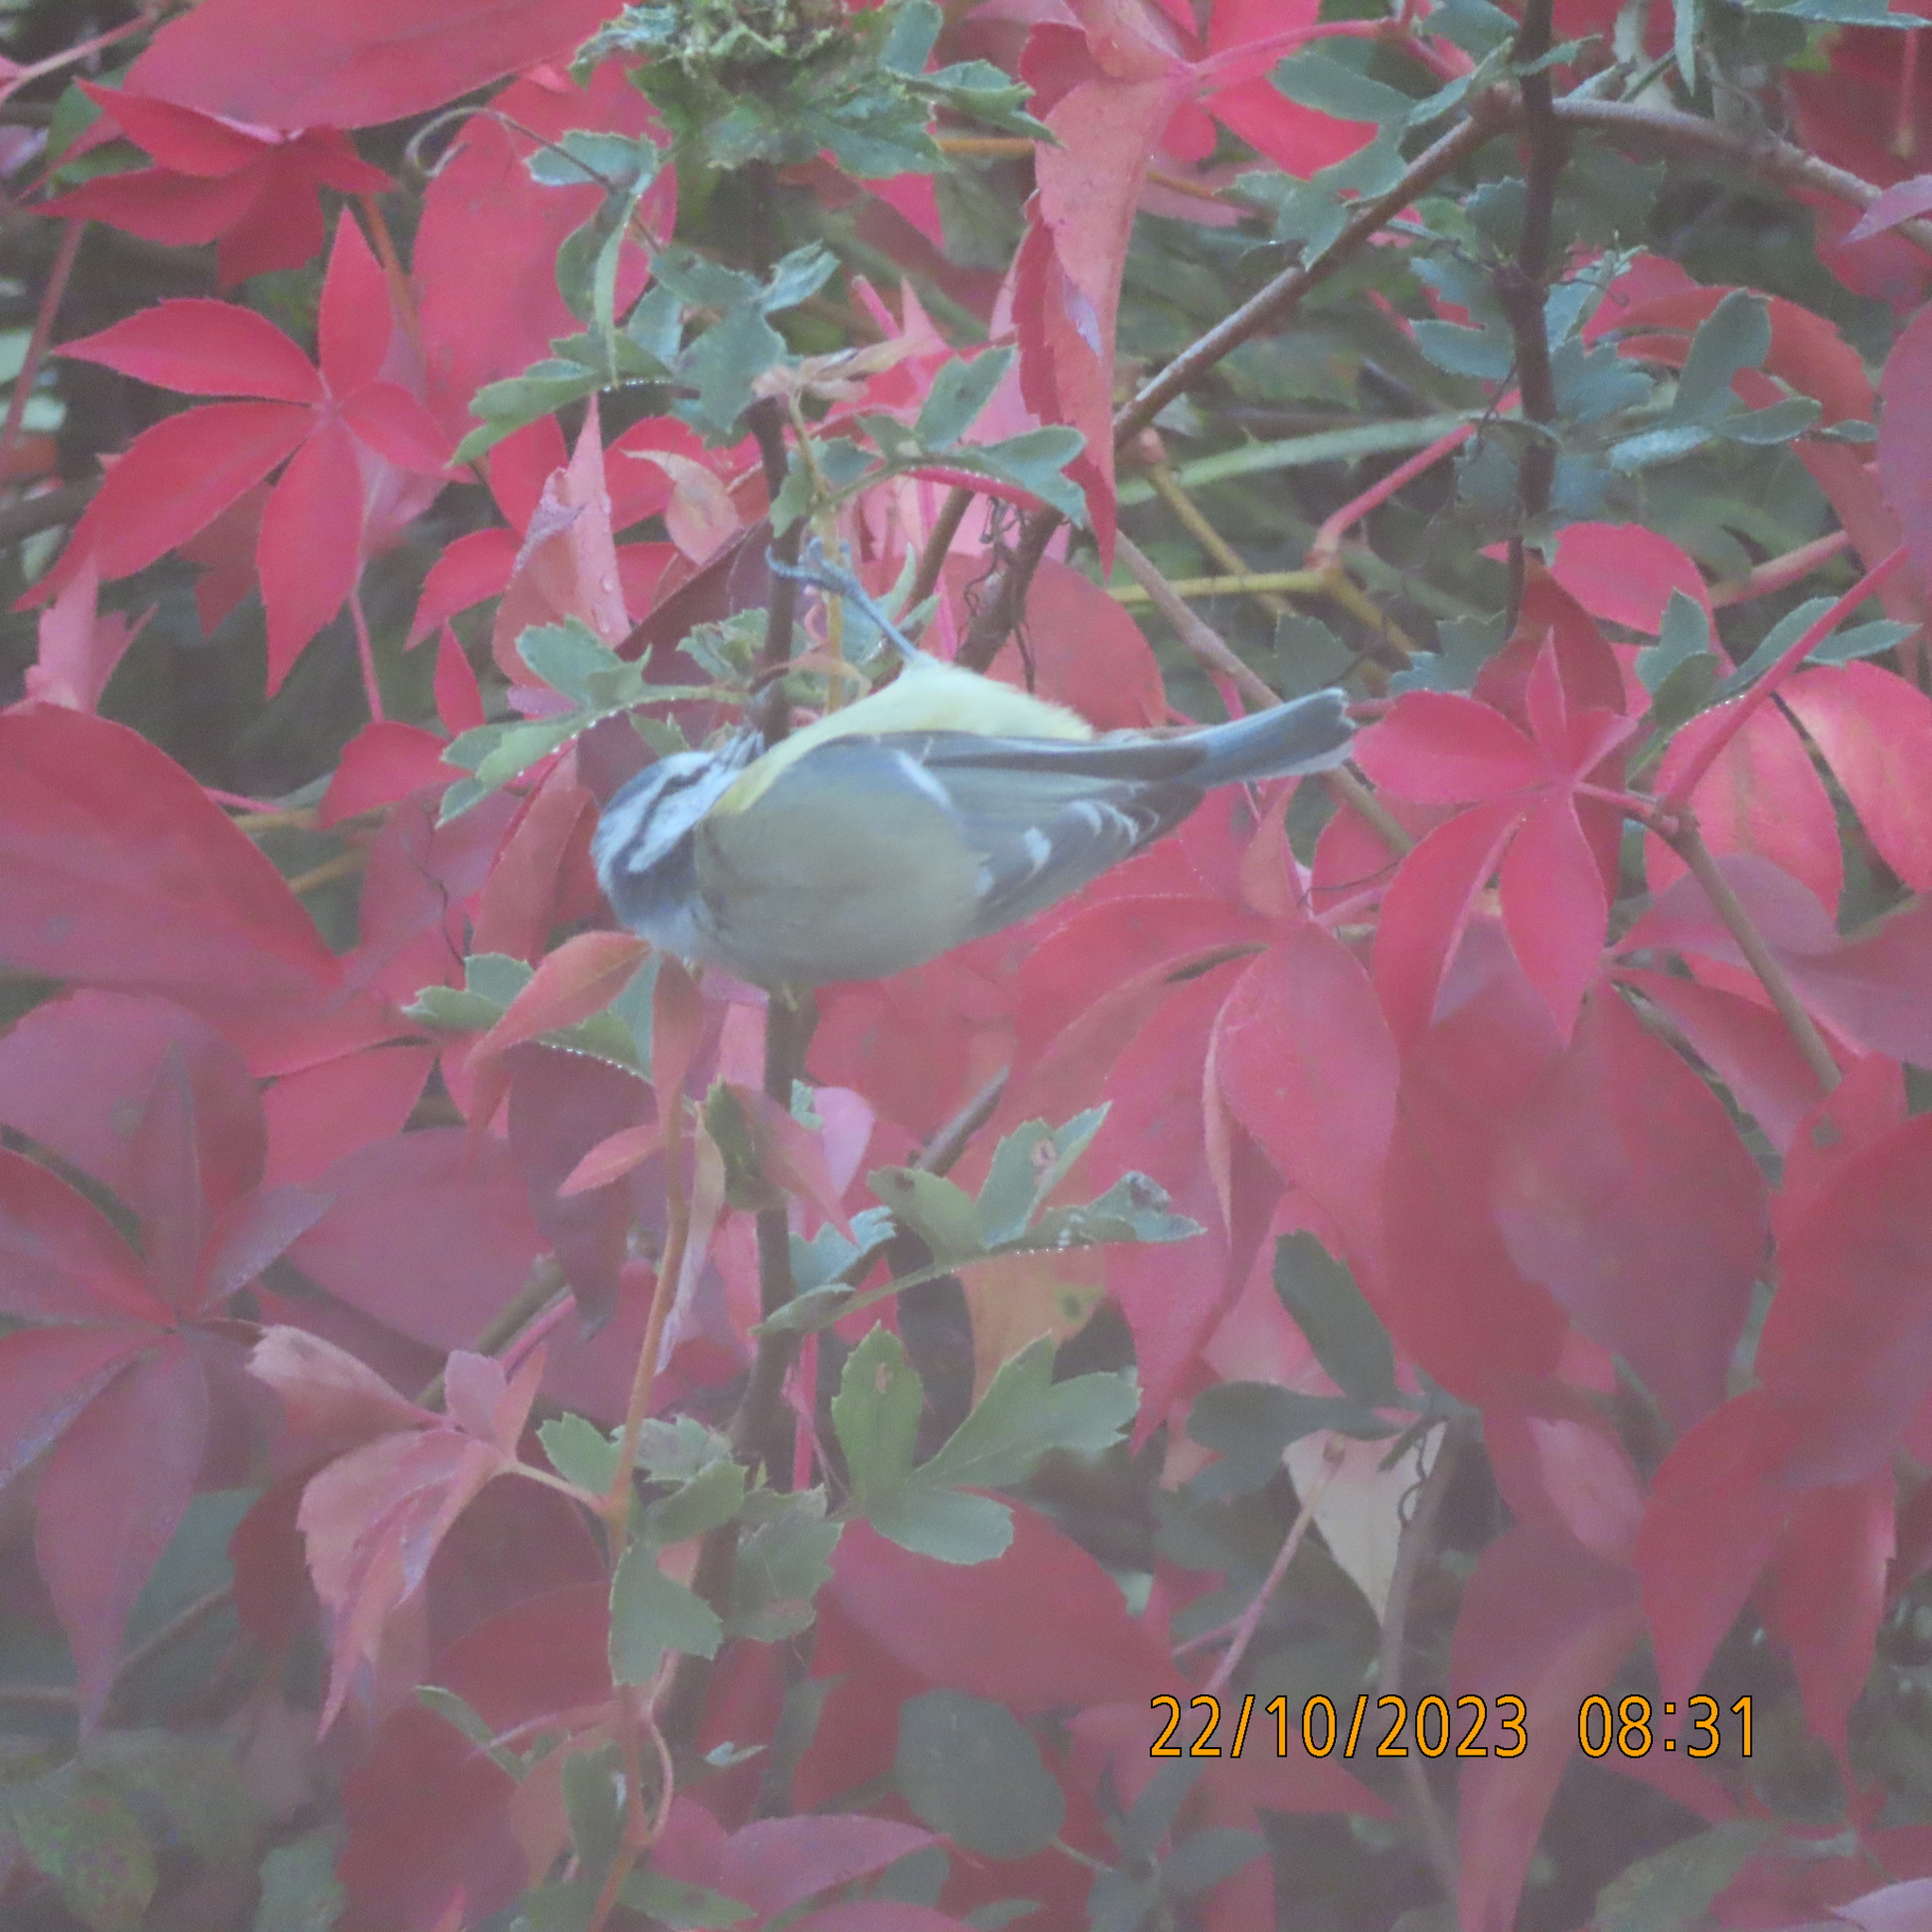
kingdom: Animalia
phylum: Chordata
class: Aves
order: Passeriformes
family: Paridae
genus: Cyanistes
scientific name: Cyanistes caeruleus
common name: Eurasian blue tit
